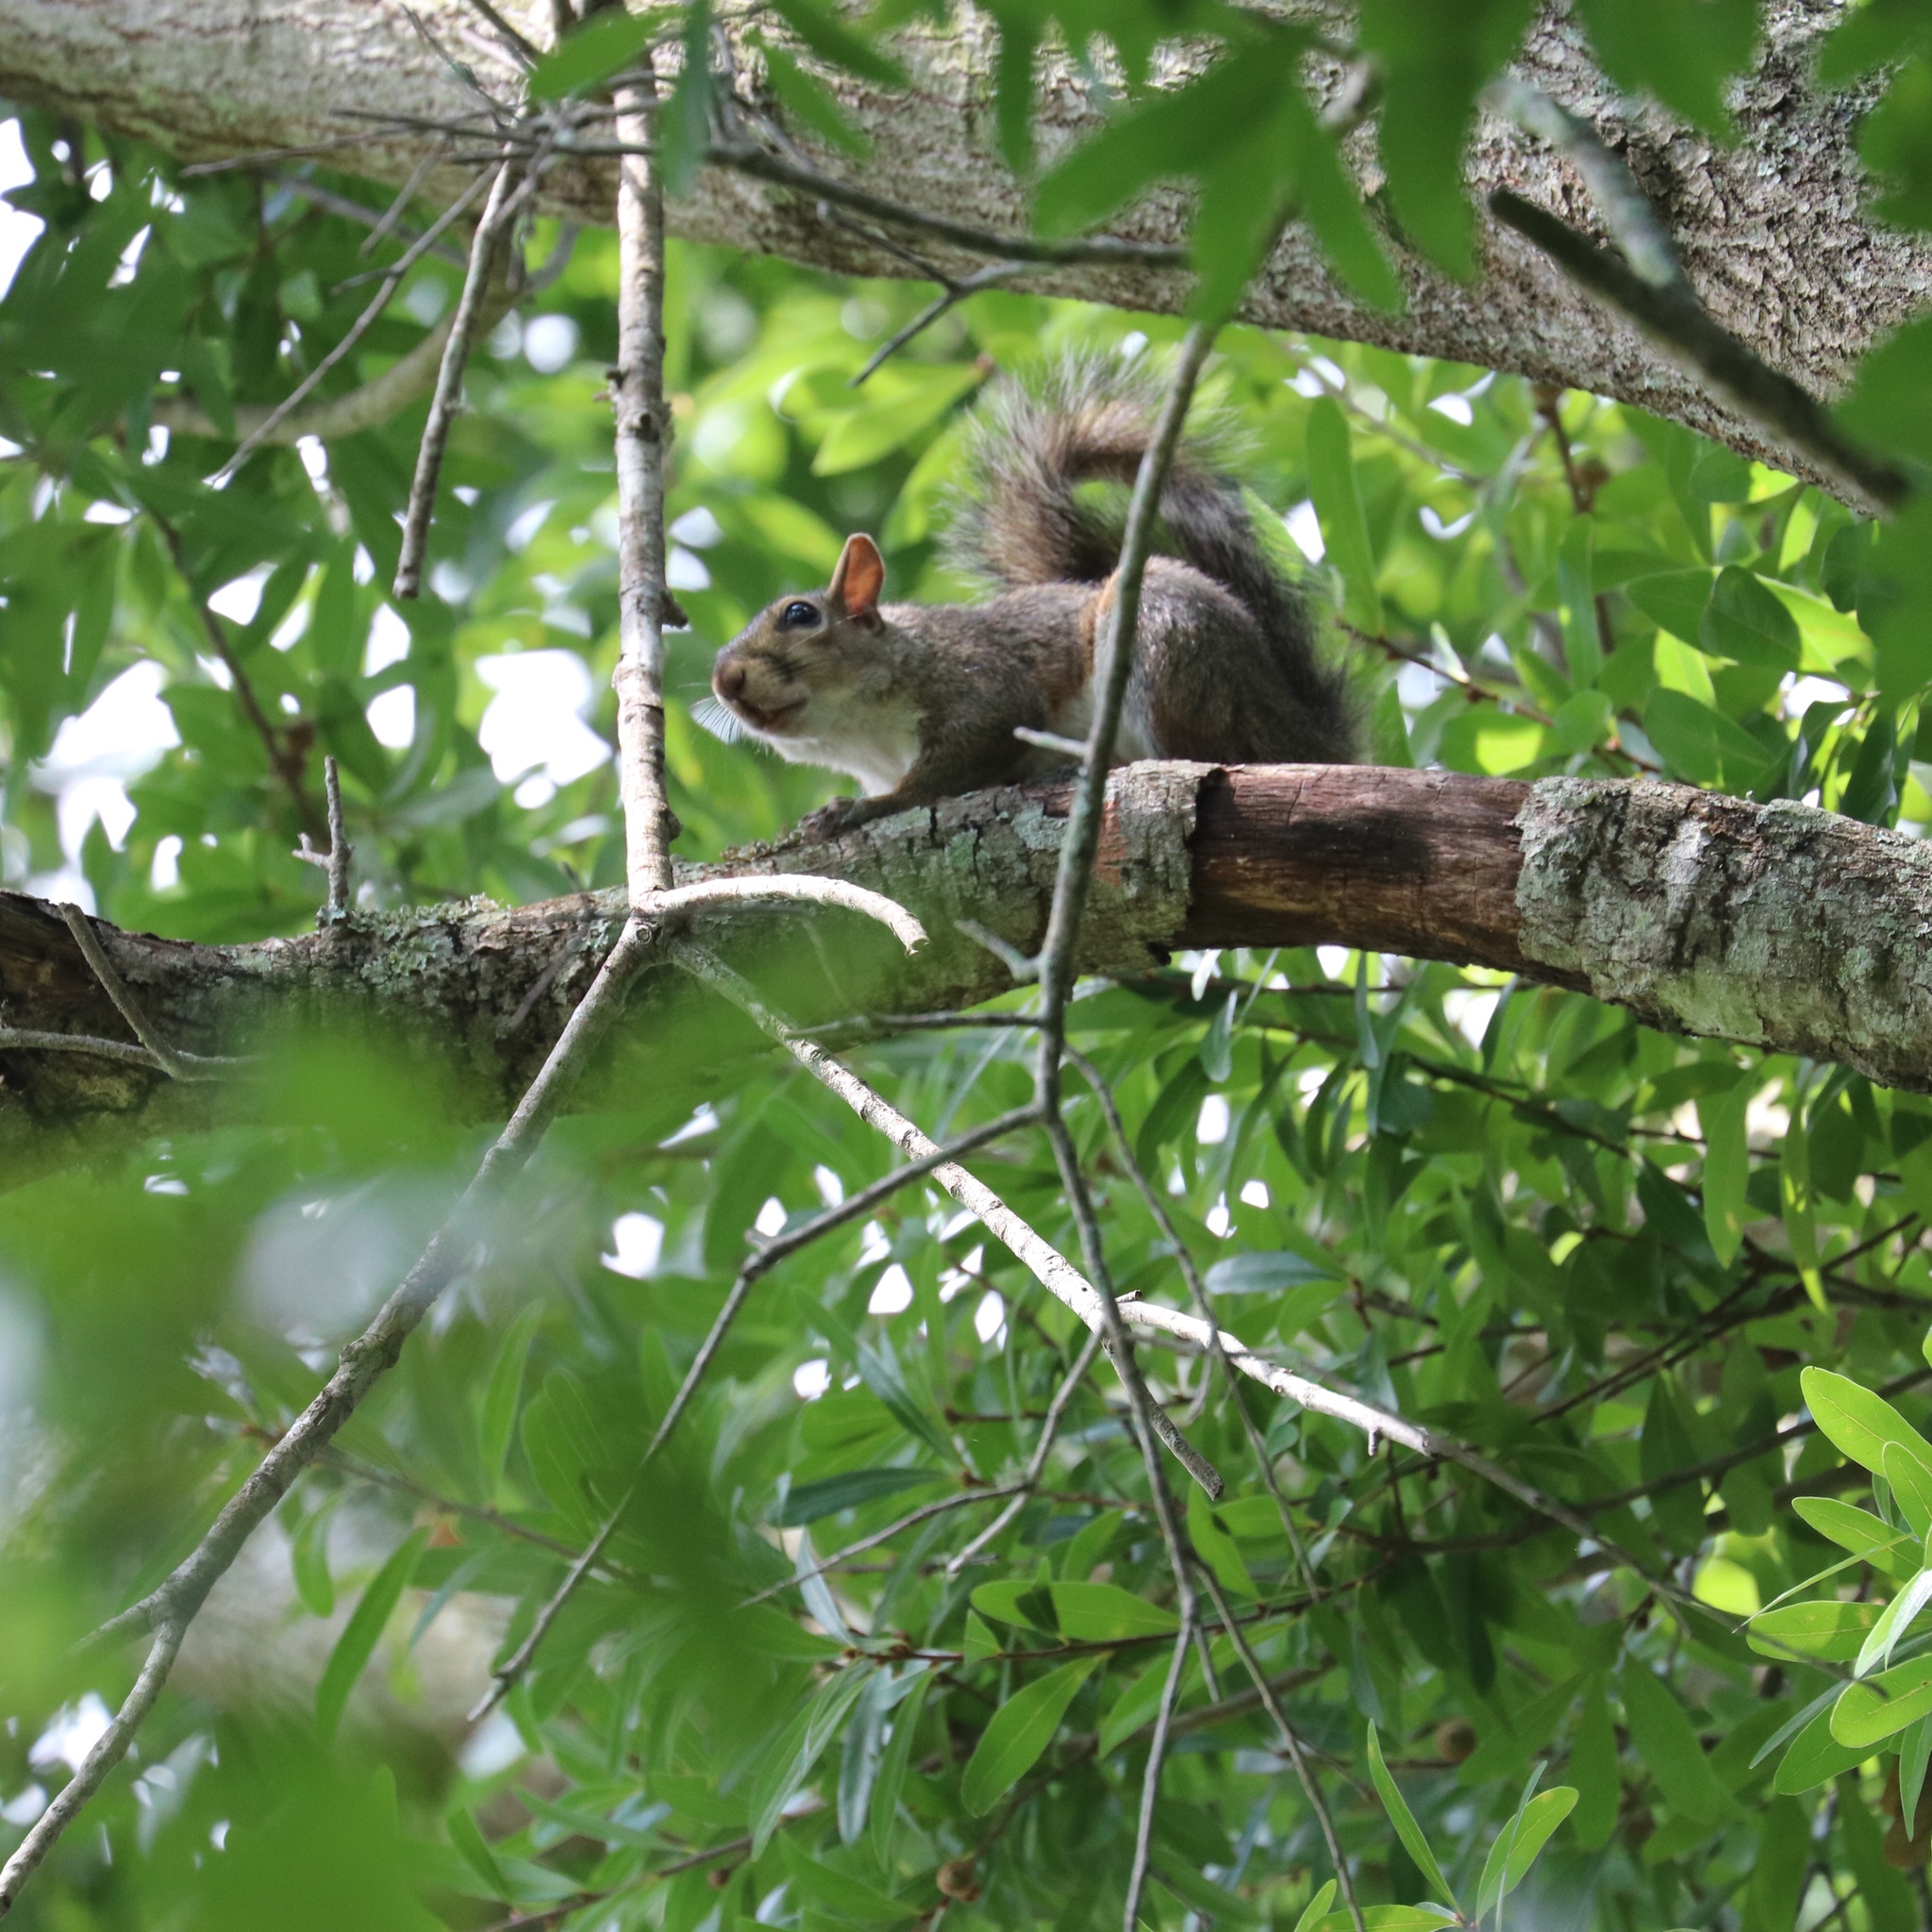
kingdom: Animalia
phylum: Chordata
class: Mammalia
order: Rodentia
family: Sciuridae
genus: Sciurus
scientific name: Sciurus carolinensis
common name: Eastern gray squirrel
